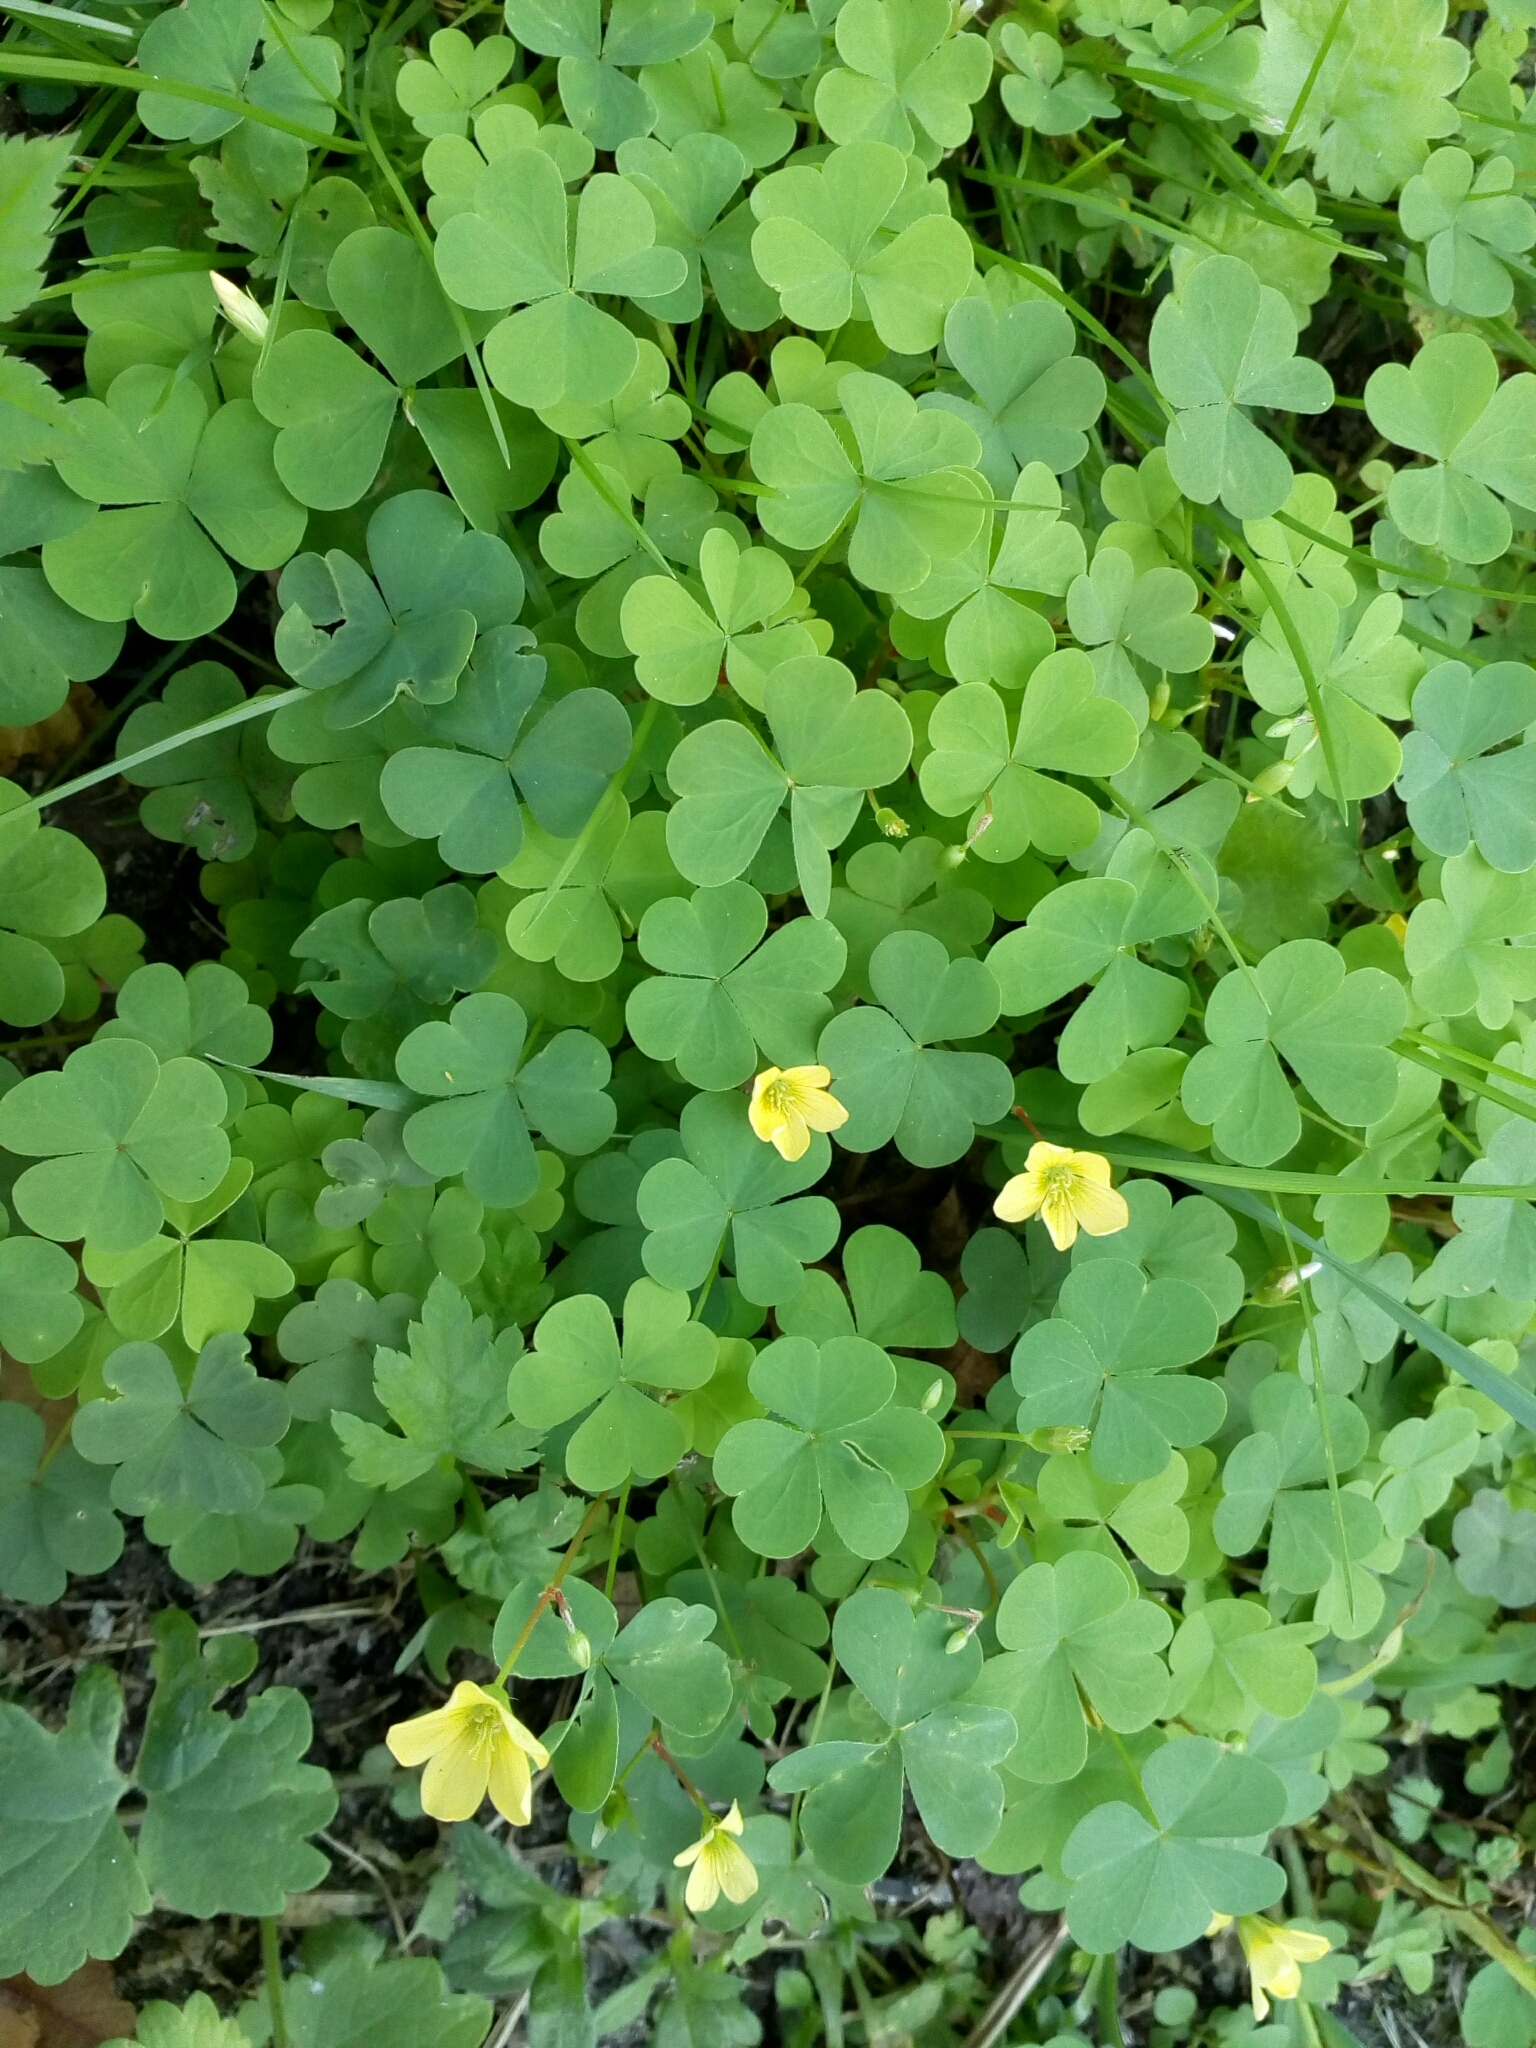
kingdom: Plantae
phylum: Tracheophyta
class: Magnoliopsida
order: Oxalidales
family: Oxalidaceae
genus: Oxalis
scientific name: Oxalis stricta
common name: Upright yellow-sorrel
